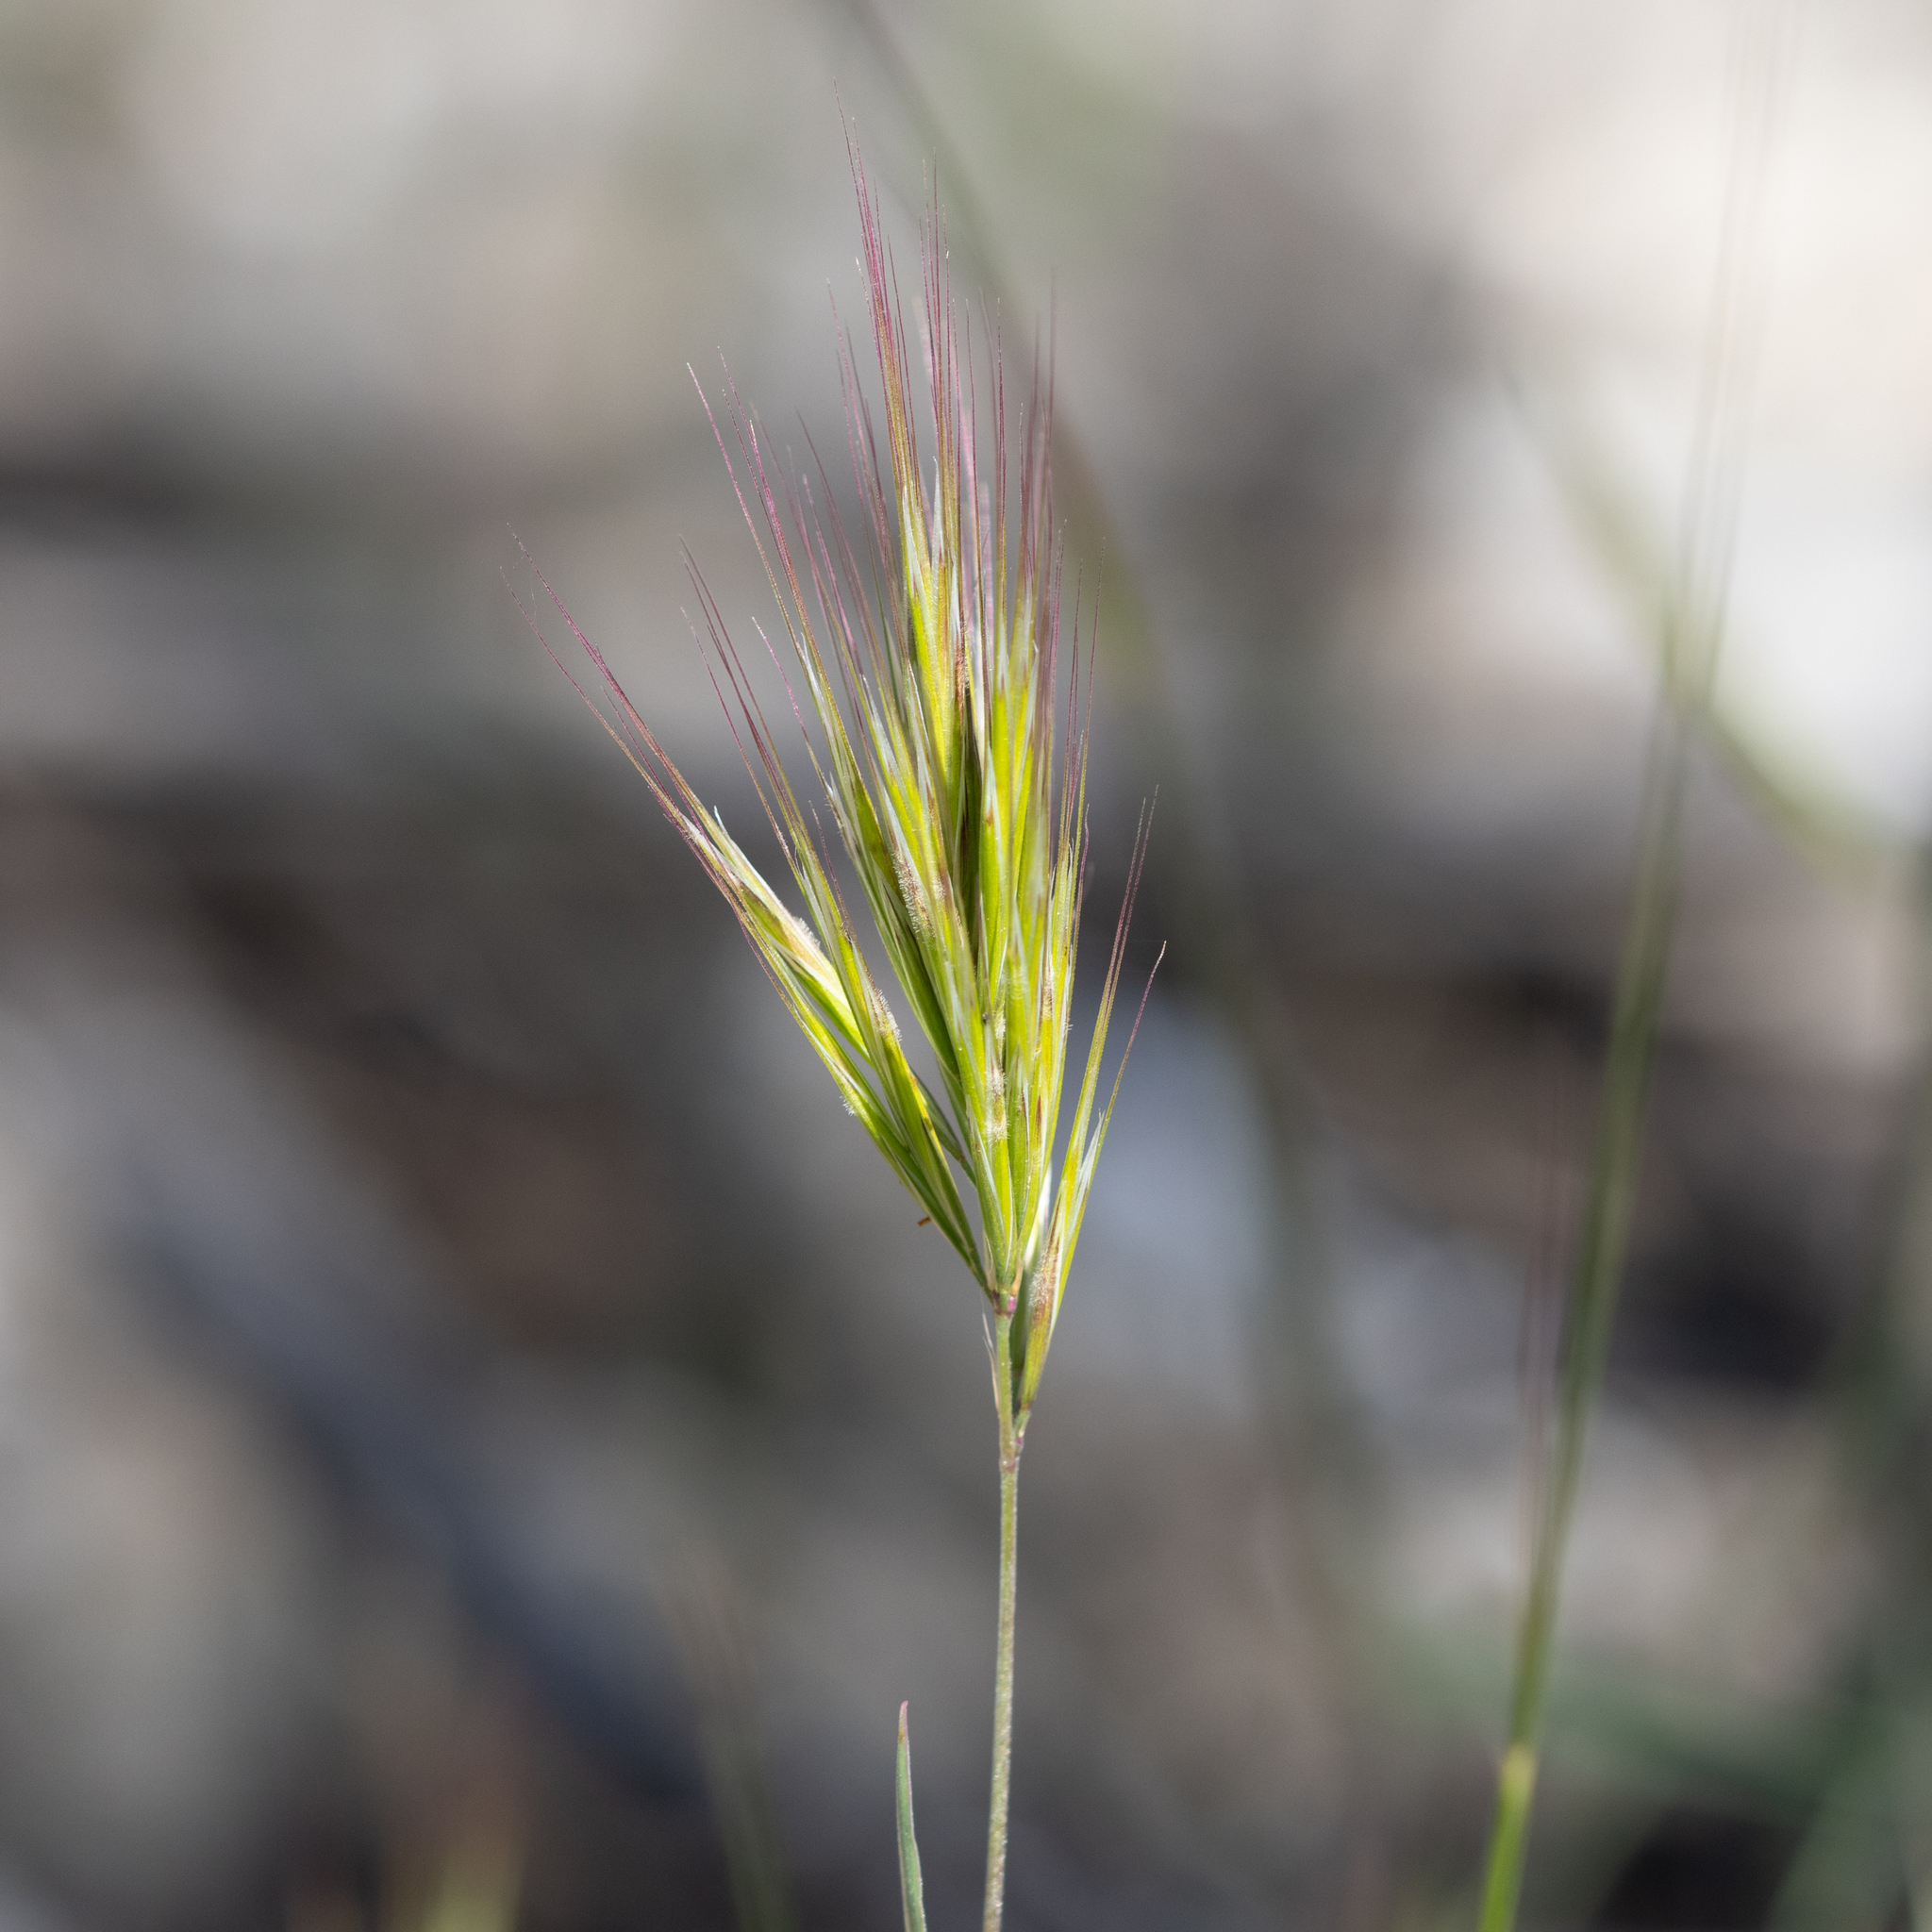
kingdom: Plantae
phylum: Tracheophyta
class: Liliopsida
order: Poales
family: Poaceae
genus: Bromus
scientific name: Bromus rubens
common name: Red brome
